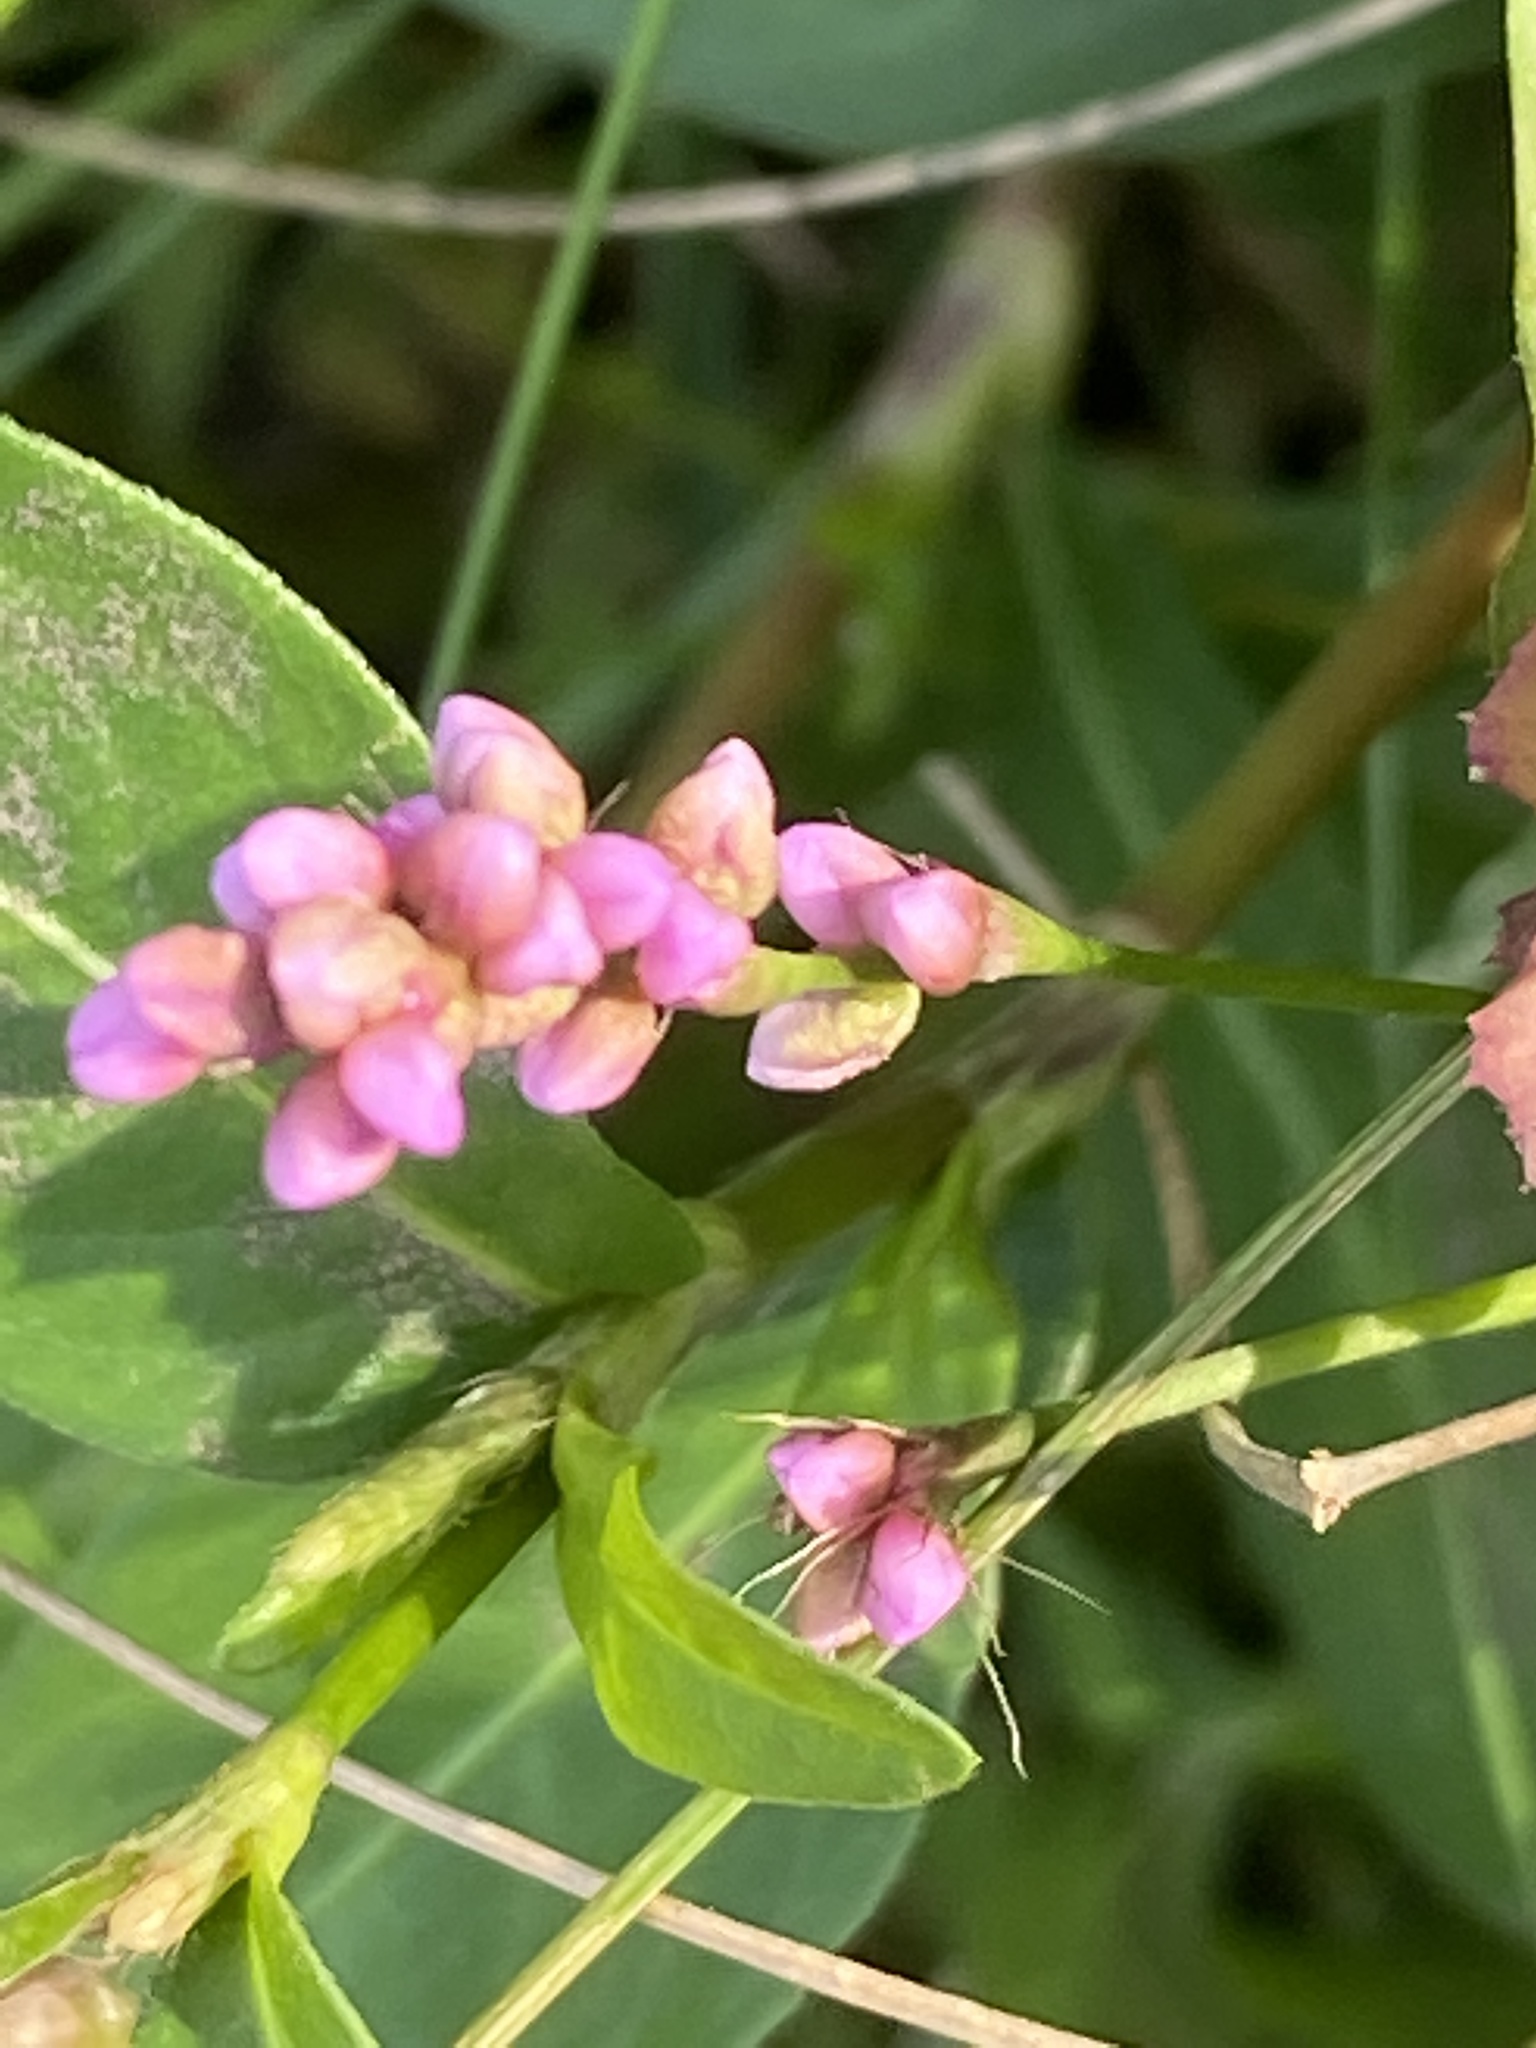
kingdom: Plantae
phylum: Tracheophyta
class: Magnoliopsida
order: Caryophyllales
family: Polygonaceae
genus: Persicaria
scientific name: Persicaria longiseta
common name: Bristly lady's-thumb
